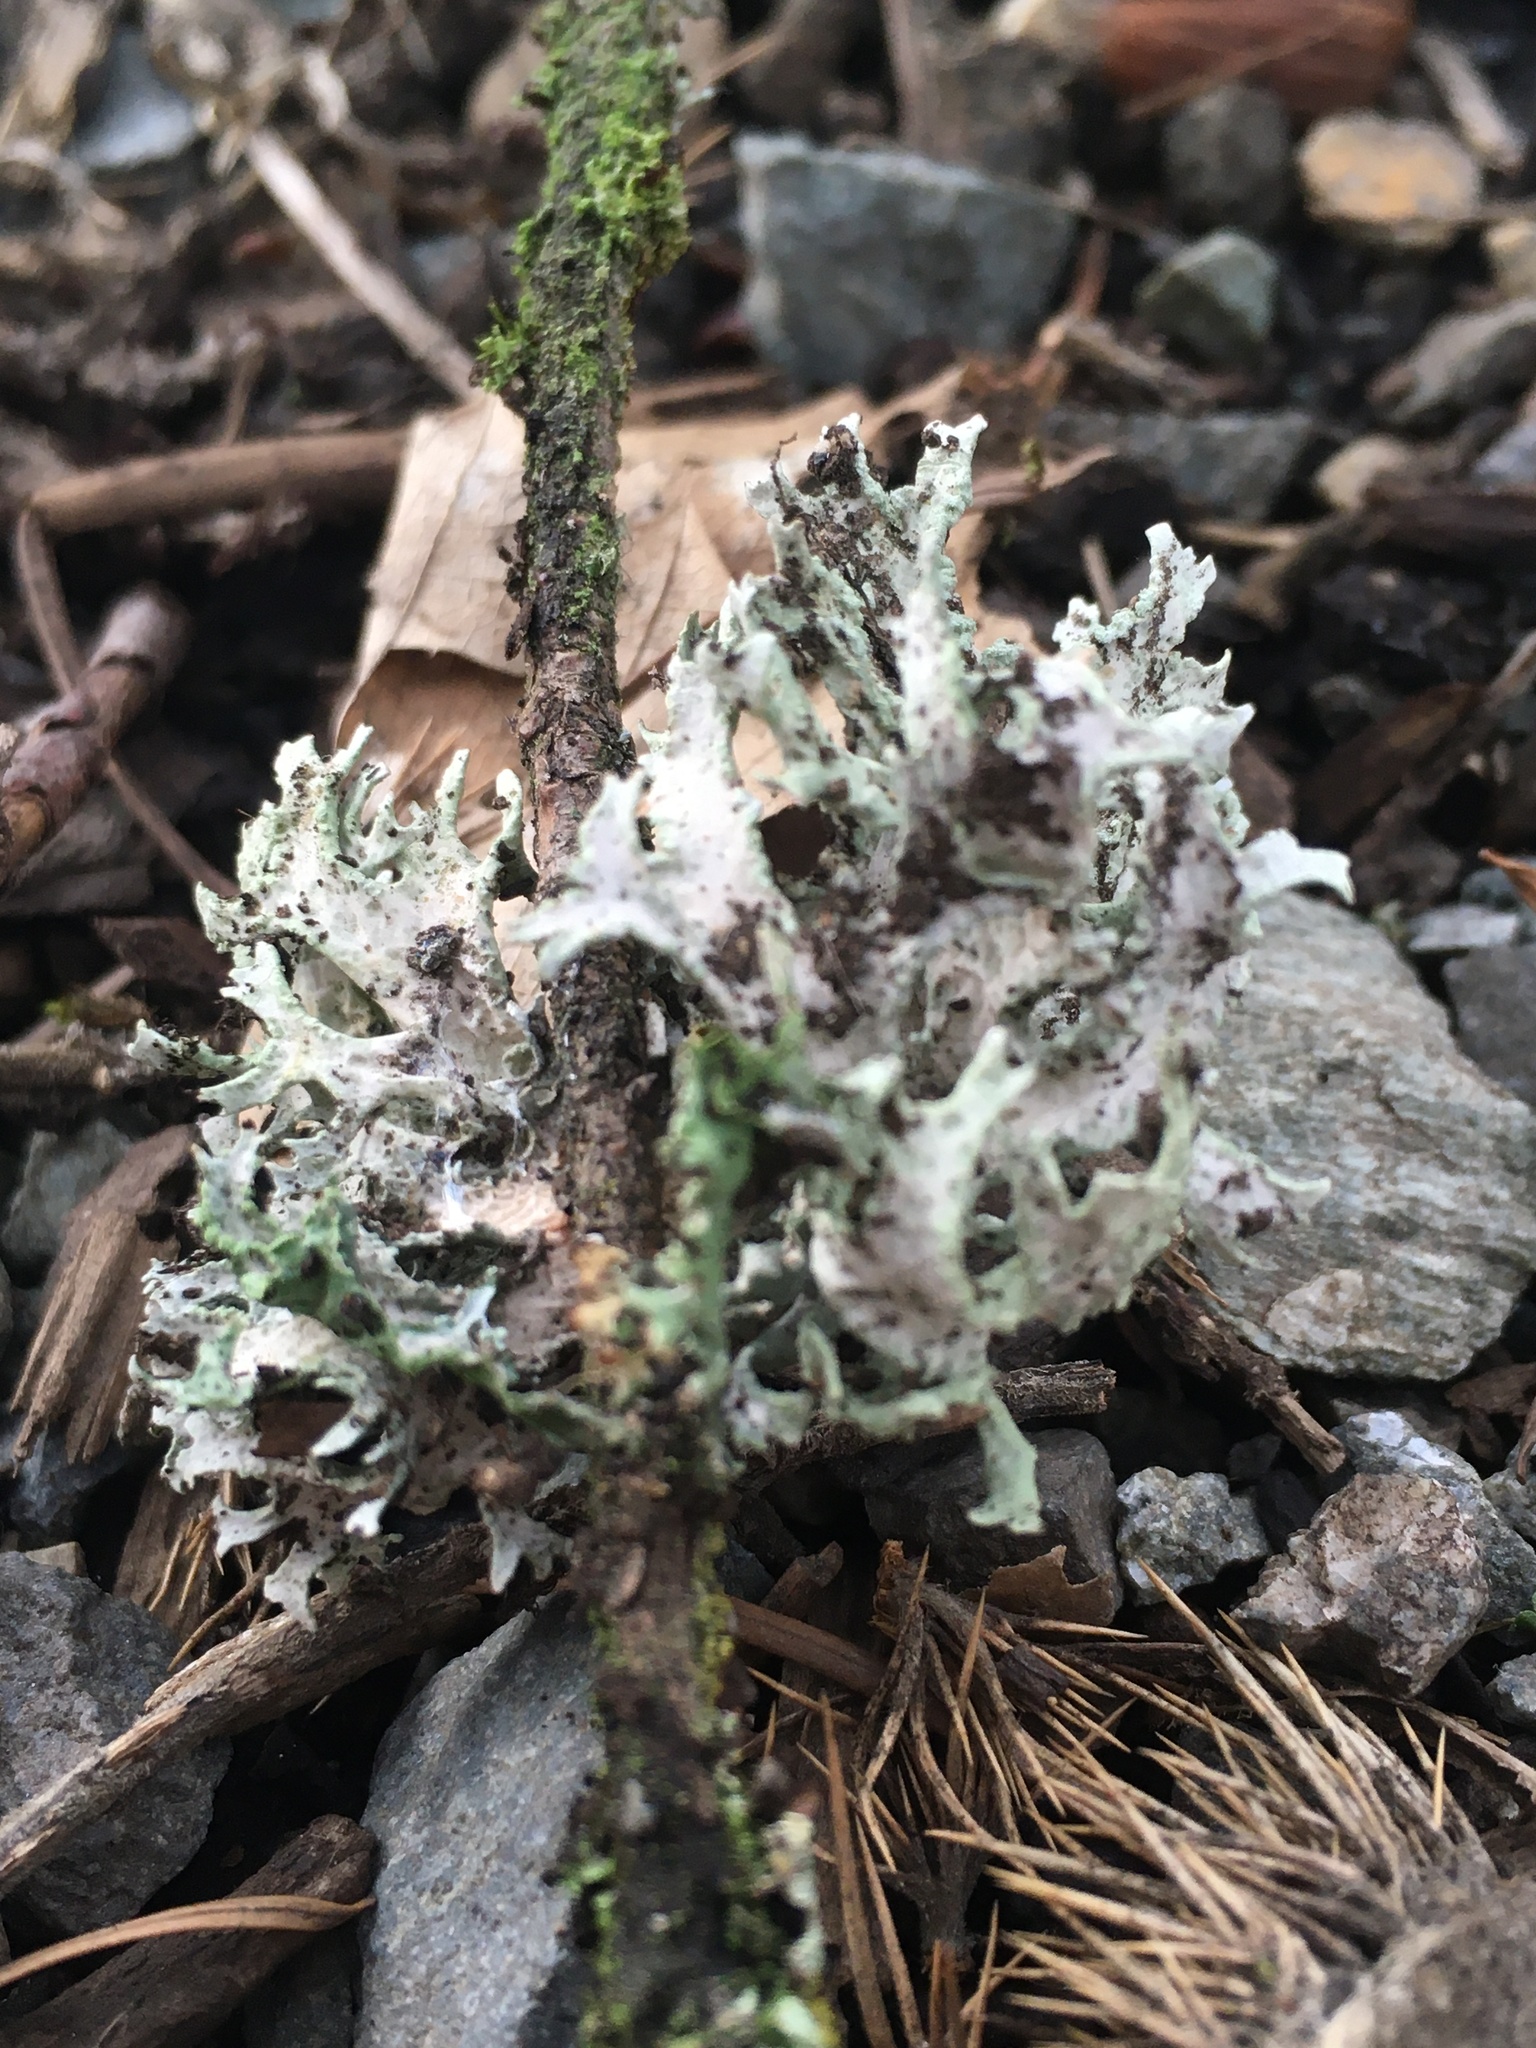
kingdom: Fungi
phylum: Ascomycota
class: Lecanoromycetes
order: Lecanorales
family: Parmeliaceae
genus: Evernia
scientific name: Evernia prunastri
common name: Oak moss
